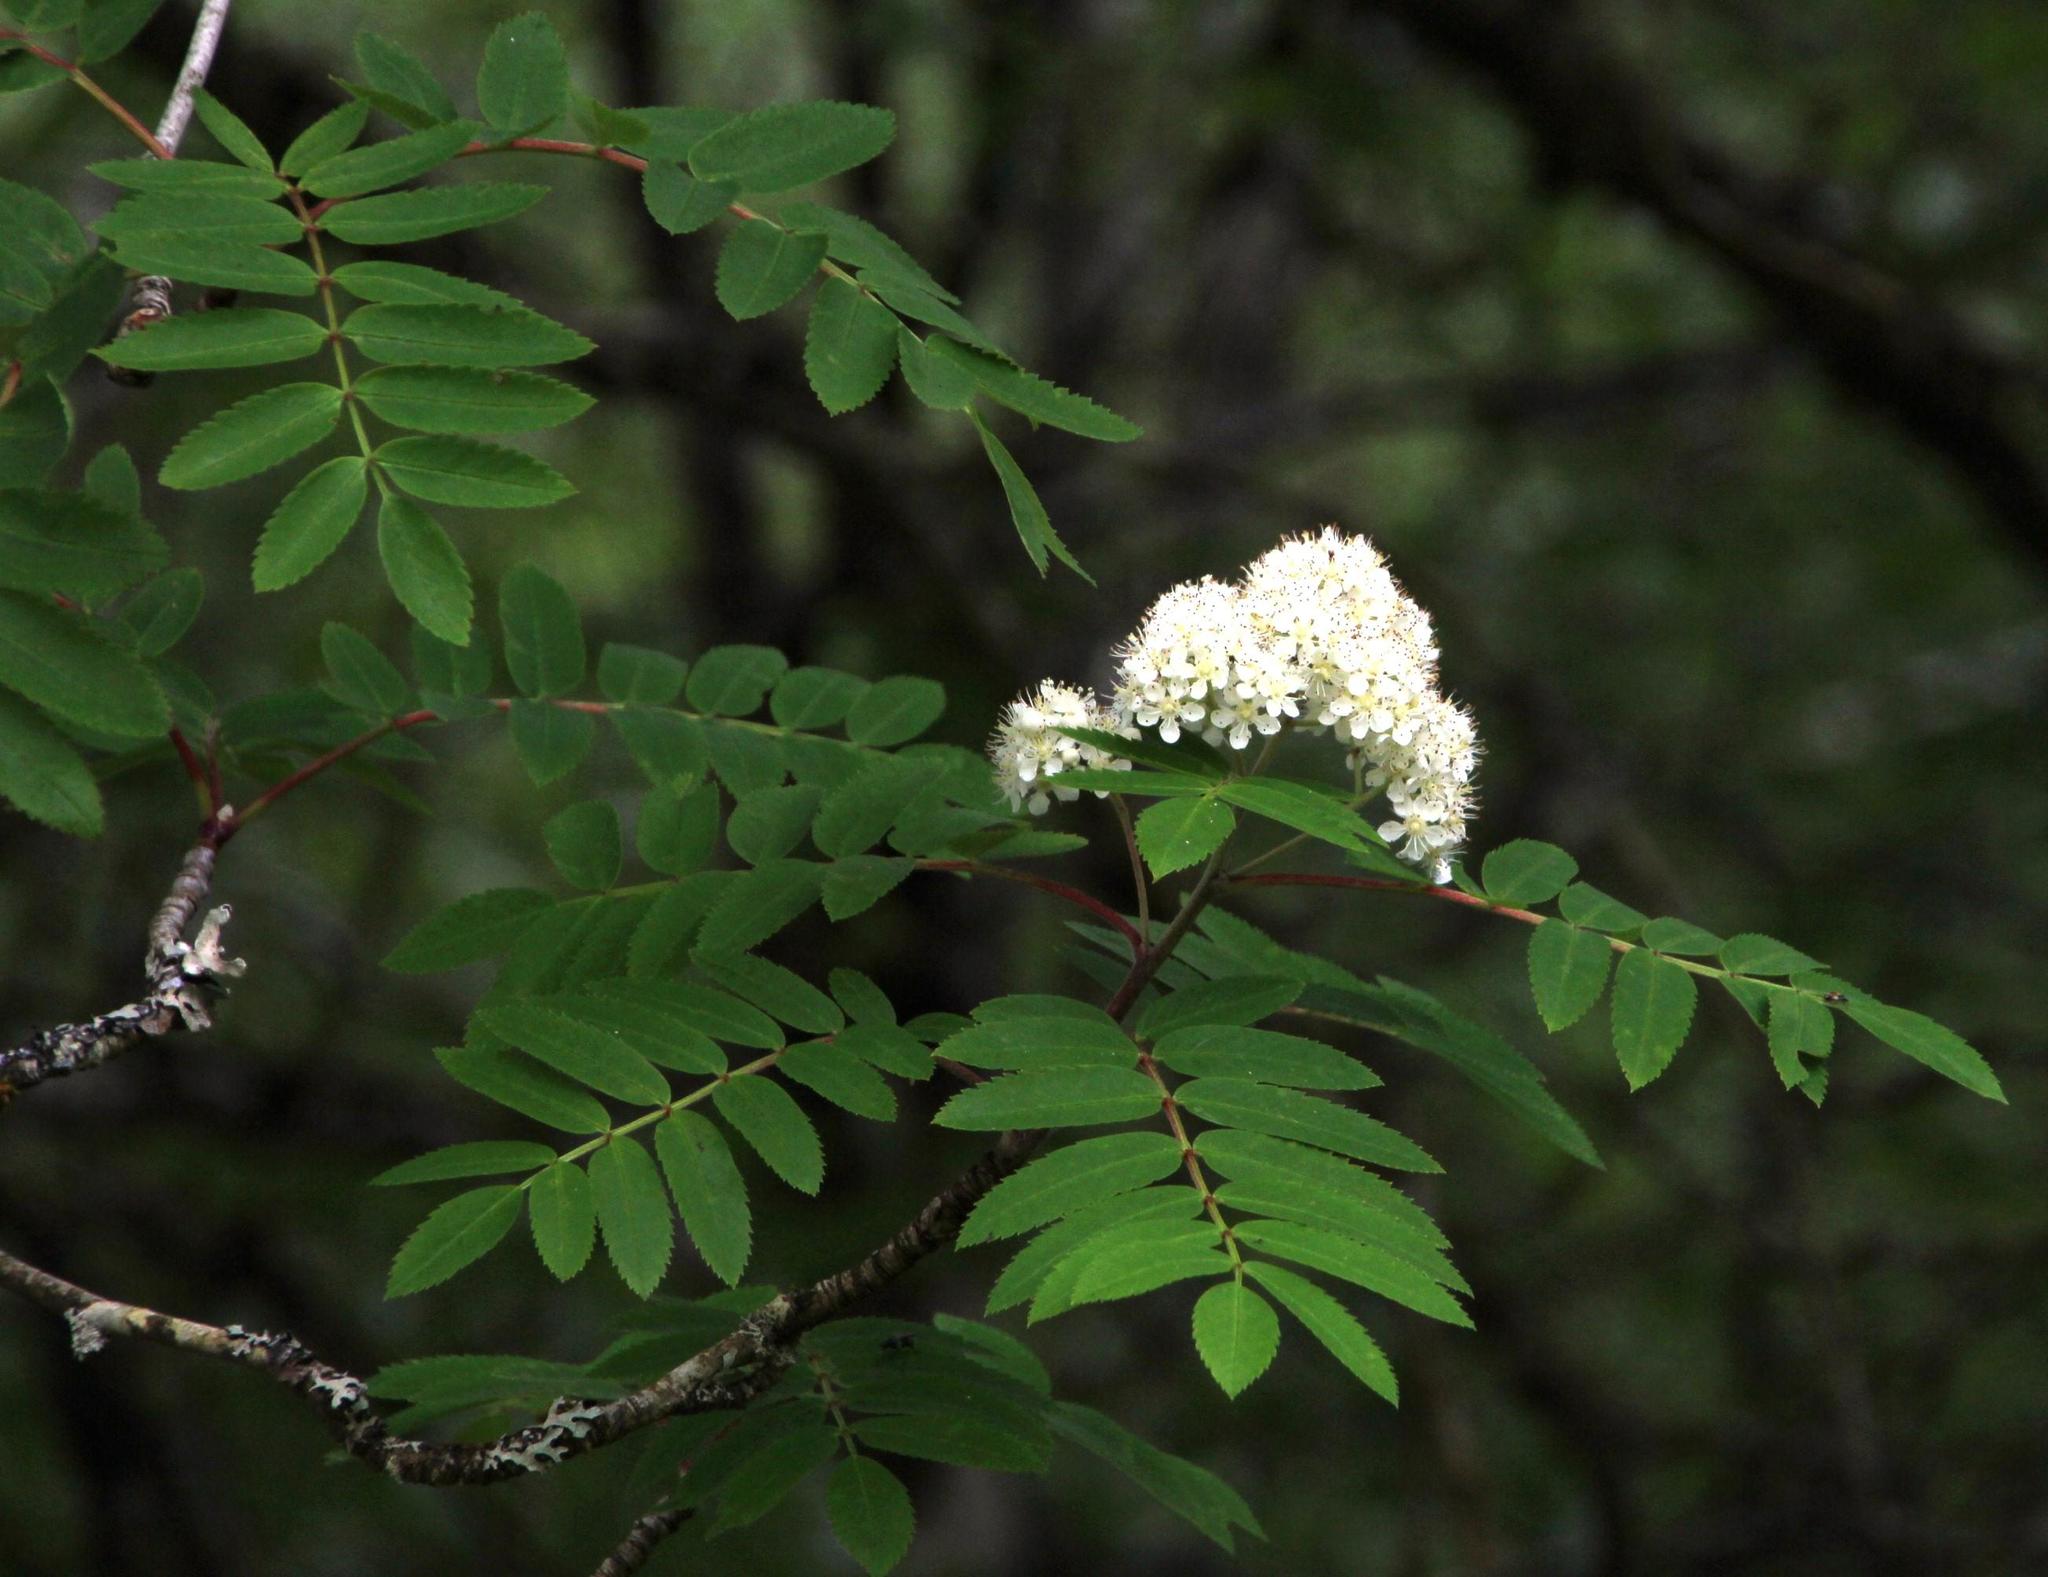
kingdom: Plantae
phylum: Tracheophyta
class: Magnoliopsida
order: Rosales
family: Rosaceae
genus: Sorbus
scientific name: Sorbus aucuparia
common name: Rowan
